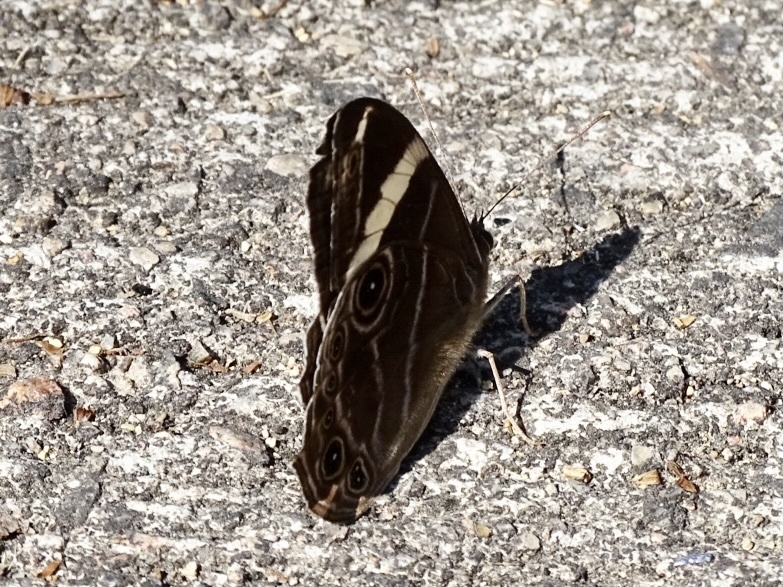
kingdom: Animalia
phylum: Arthropoda
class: Insecta
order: Lepidoptera
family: Nymphalidae
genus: Lethe
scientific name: Lethe confusa
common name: Banded treebrown
